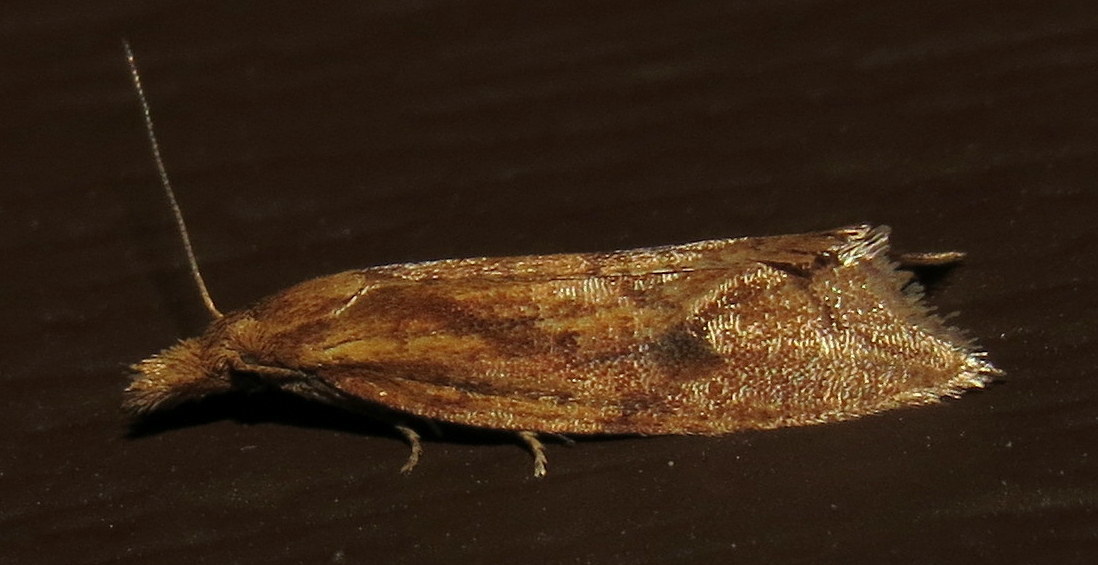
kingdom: Animalia
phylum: Arthropoda
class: Insecta
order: Lepidoptera
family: Tortricidae
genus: Aethes
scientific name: Aethes biscana
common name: Reddish aethes
